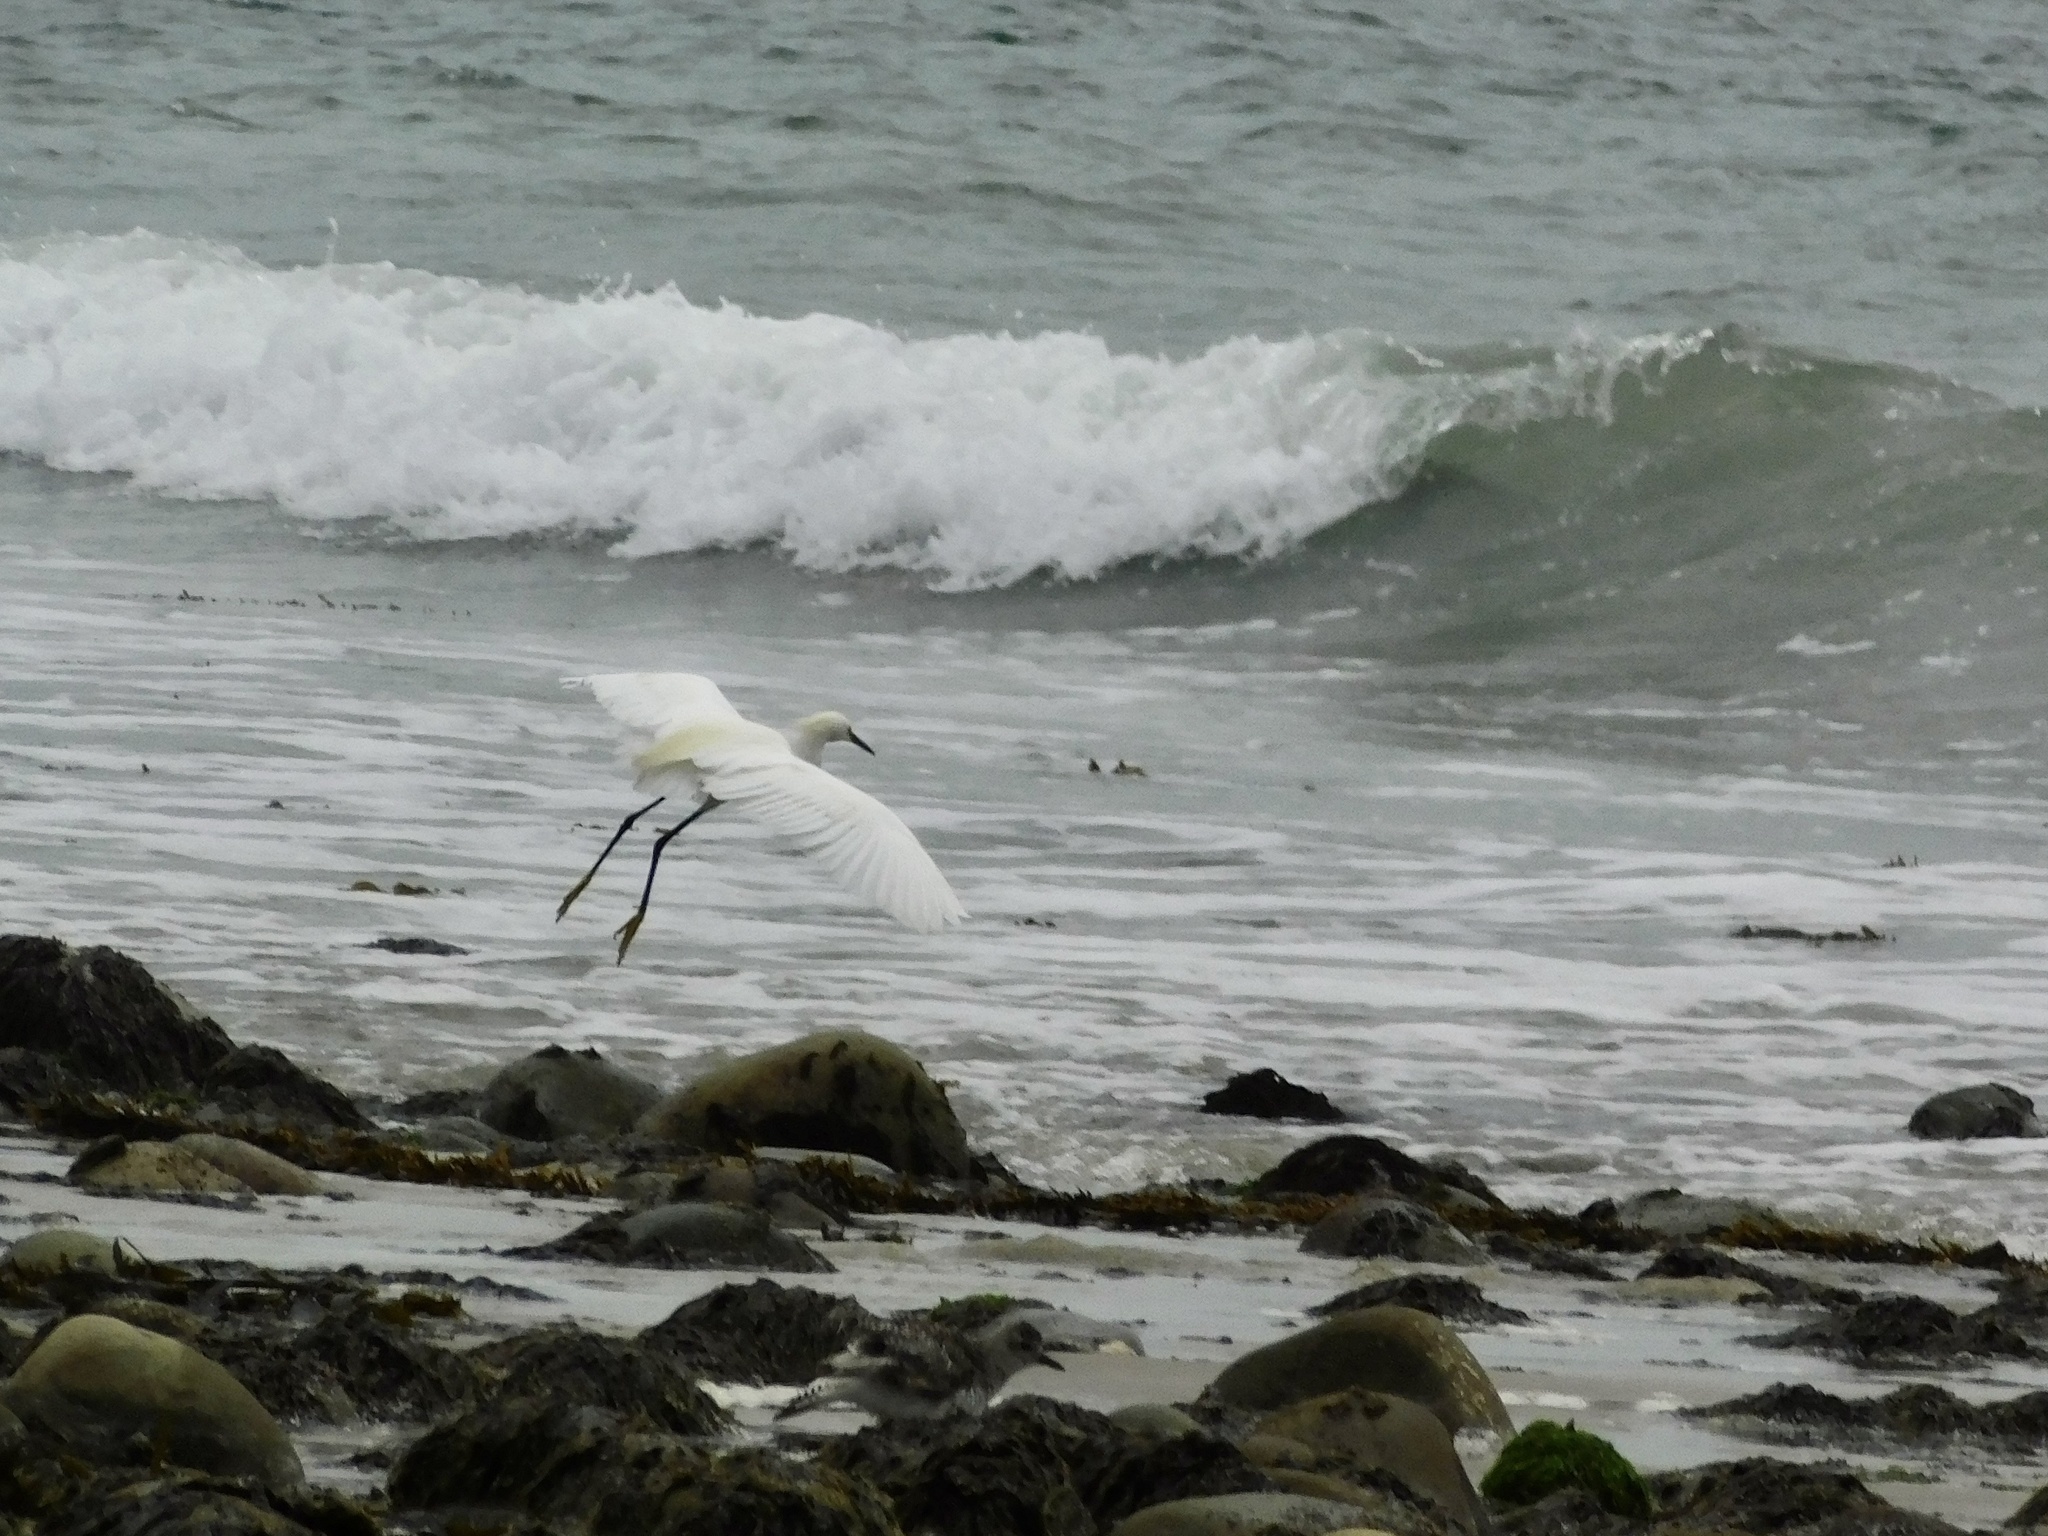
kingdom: Animalia
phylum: Chordata
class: Aves
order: Pelecaniformes
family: Ardeidae
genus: Egretta
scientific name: Egretta thula
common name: Snowy egret
